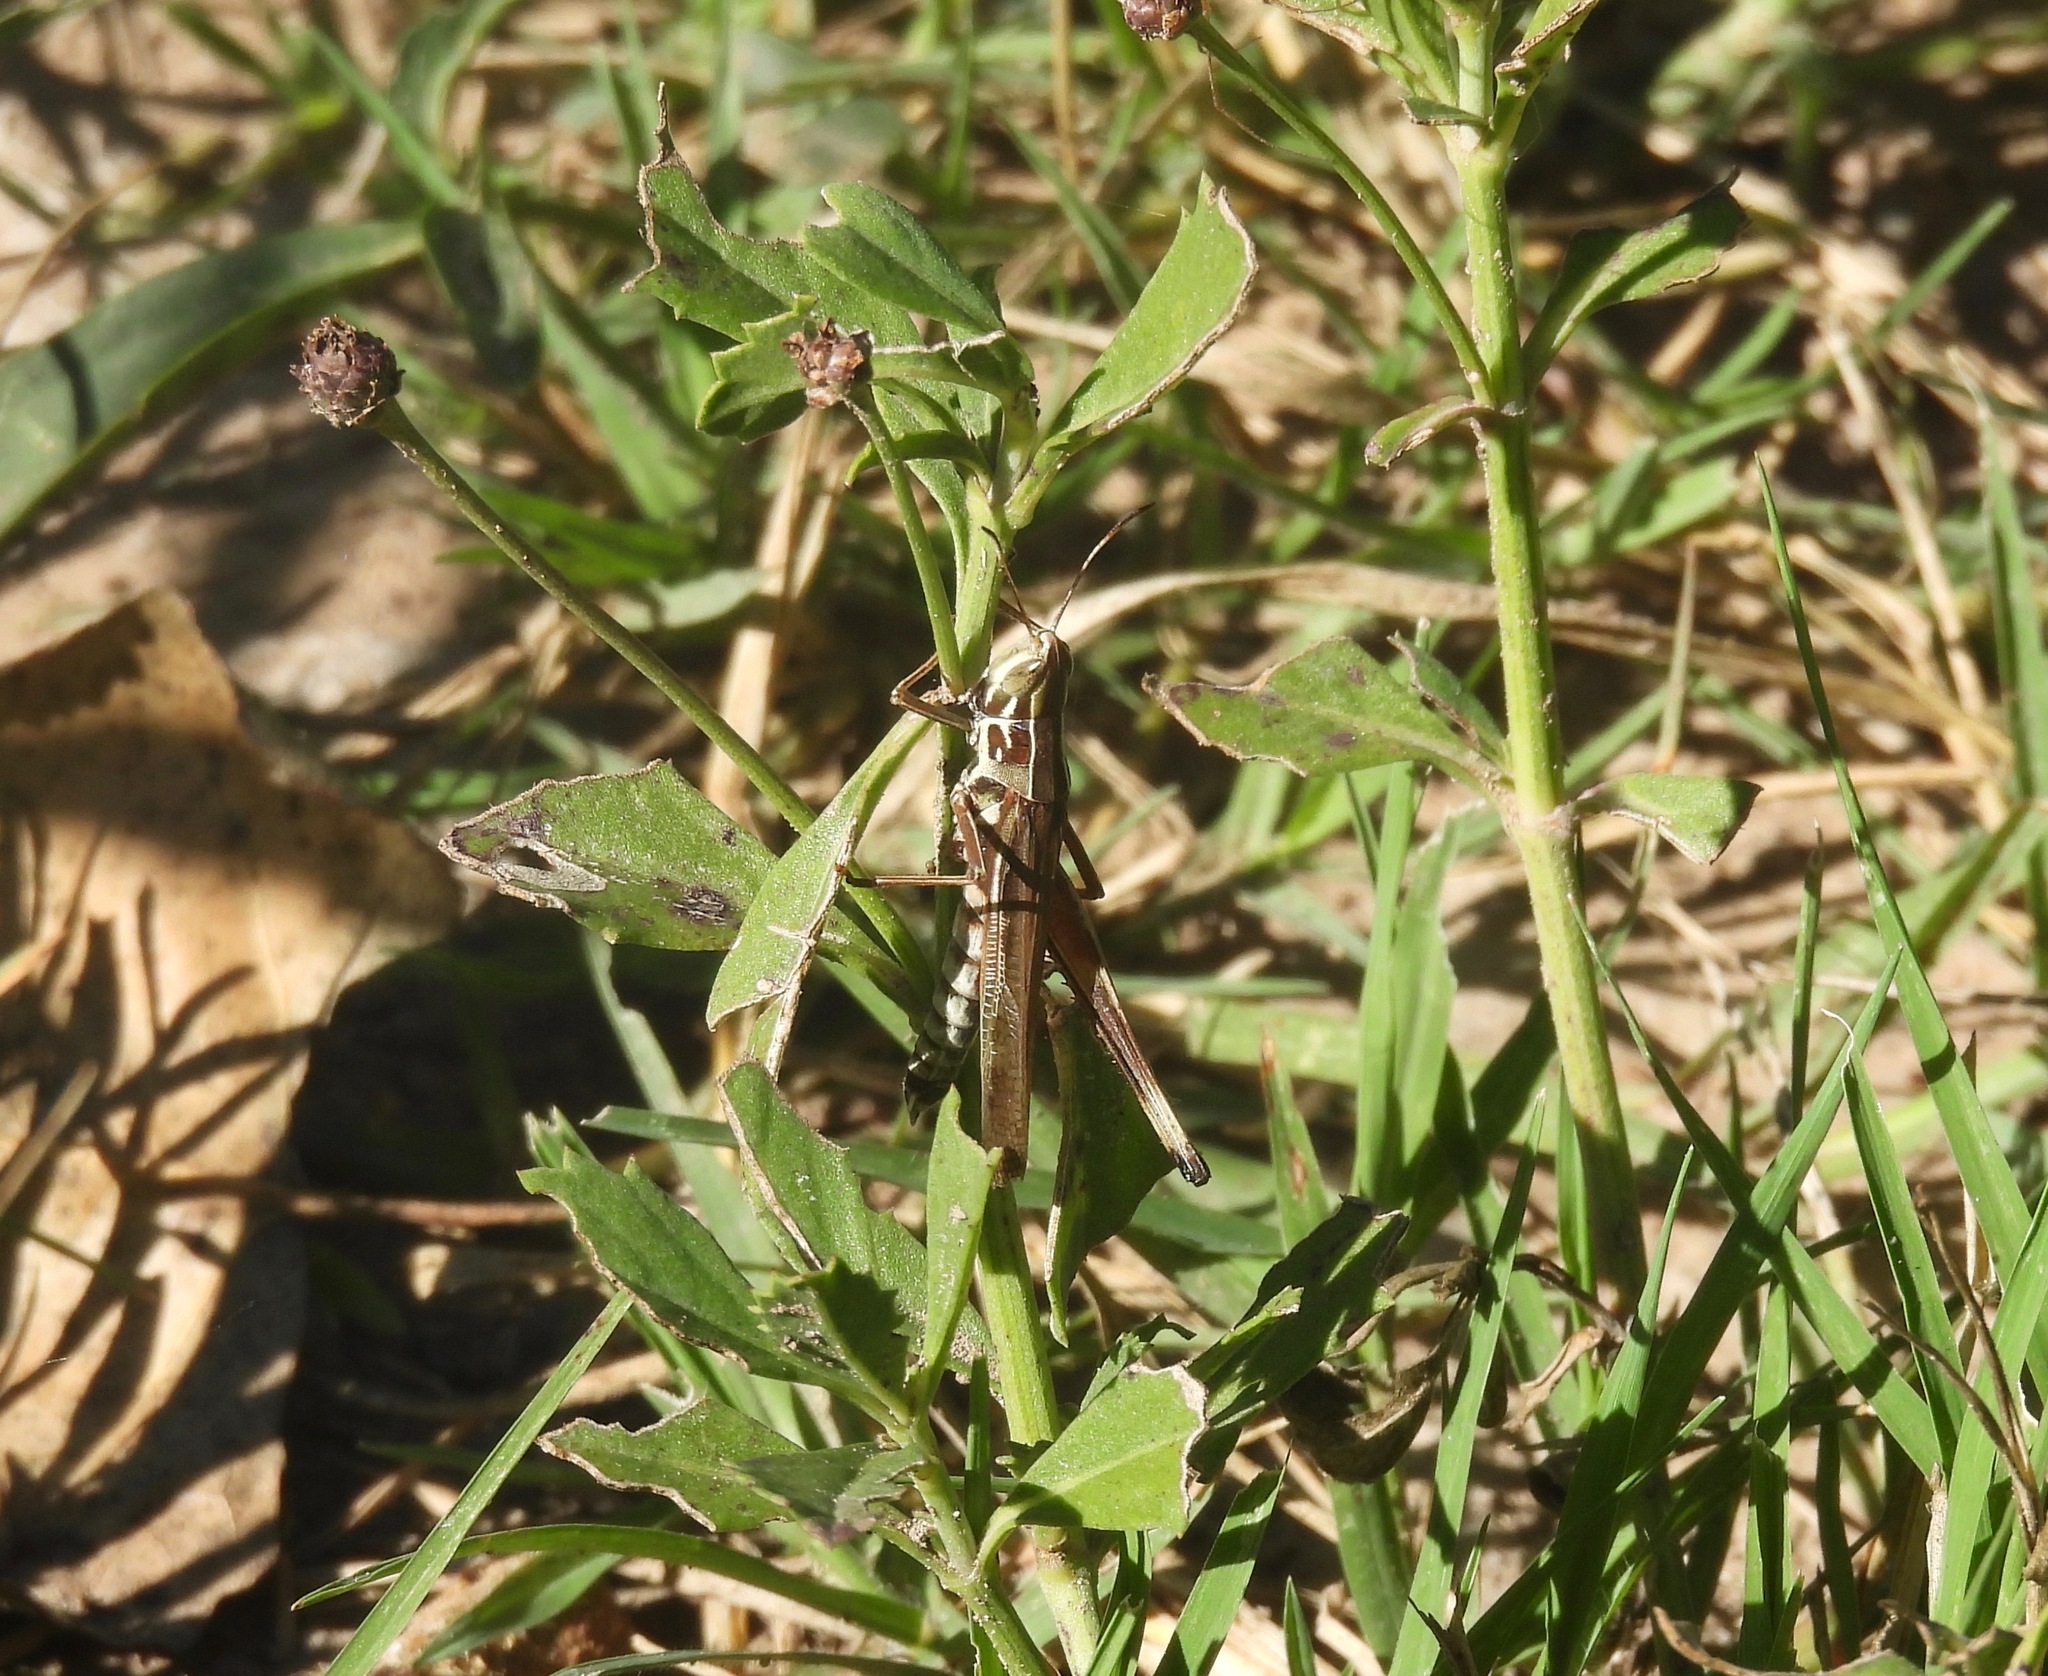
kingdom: Animalia
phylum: Arthropoda
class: Insecta
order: Orthoptera
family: Acrididae
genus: Syrbula
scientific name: Syrbula admirabilis
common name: Handsome grasshopper
